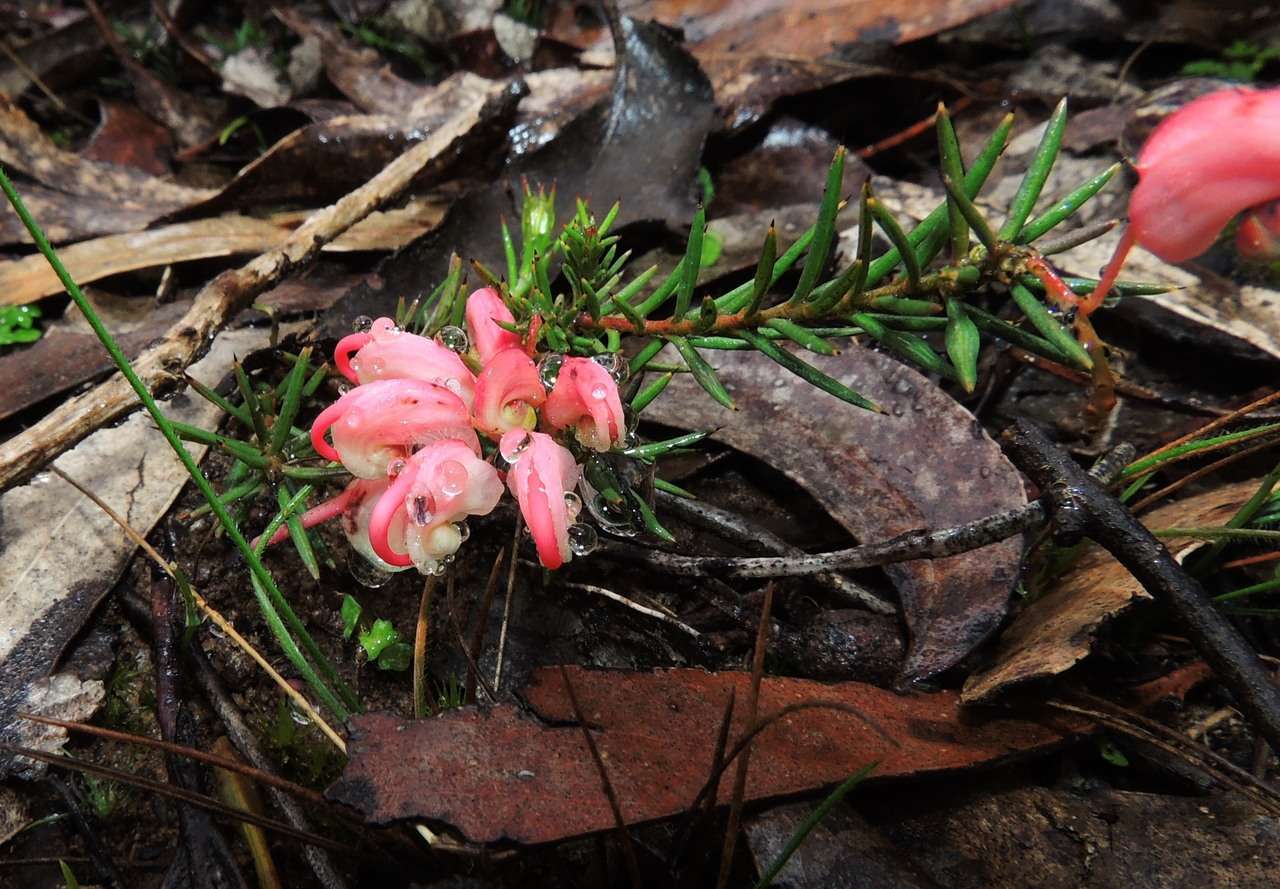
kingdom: Plantae
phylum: Tracheophyta
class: Magnoliopsida
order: Proteales
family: Proteaceae
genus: Grevillea
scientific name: Grevillea rosmarinifolia
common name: Rosemary grevillea
